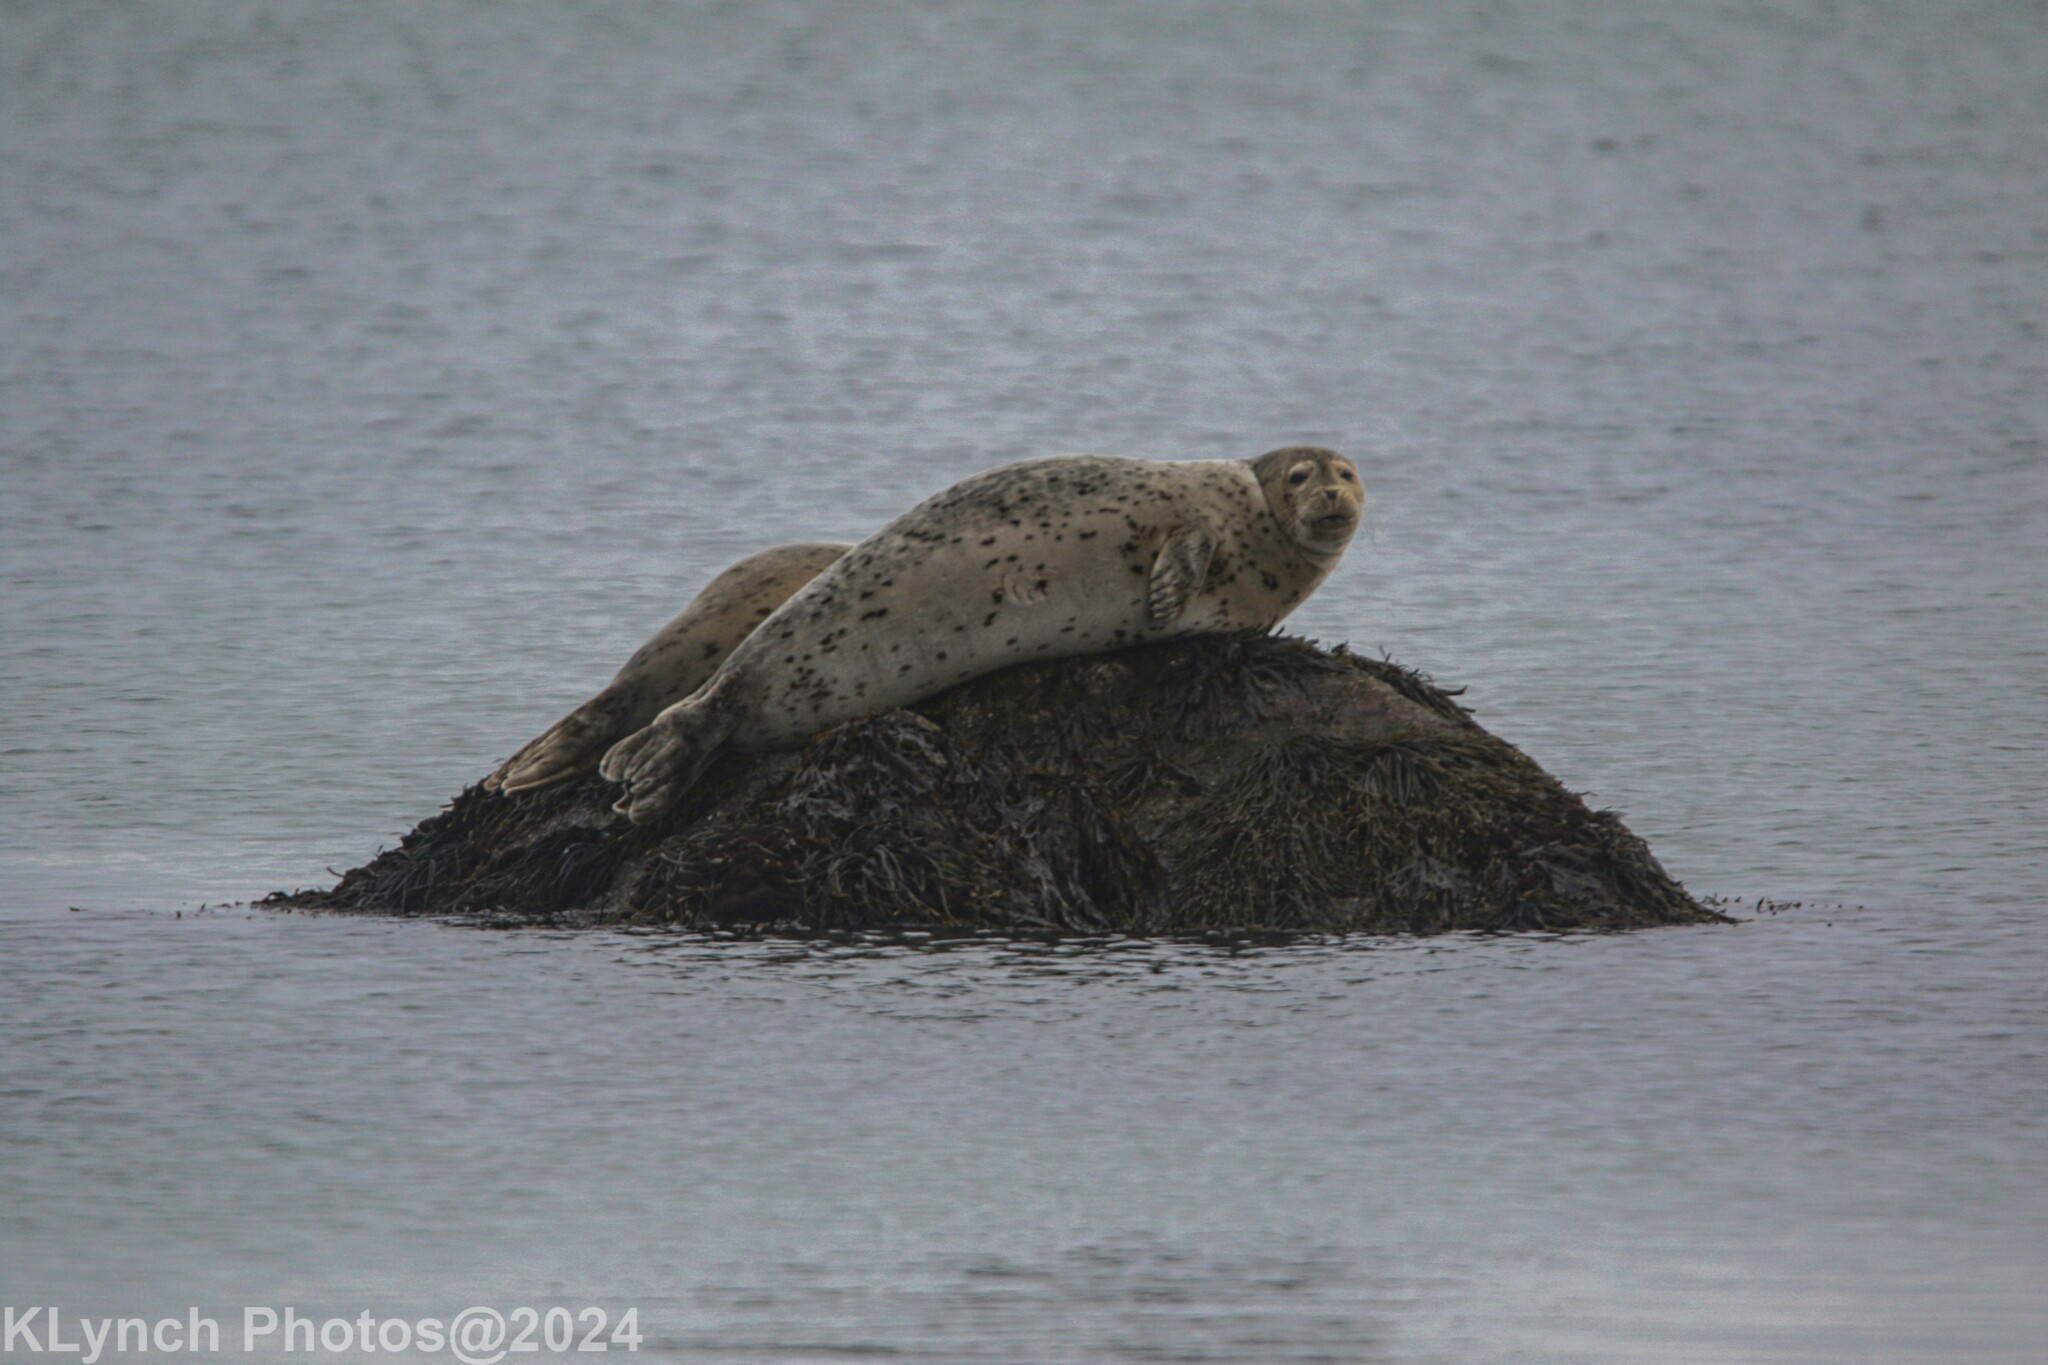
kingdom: Animalia
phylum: Chordata
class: Mammalia
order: Carnivora
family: Phocidae
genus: Phoca
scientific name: Phoca vitulina
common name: Harbor seal
